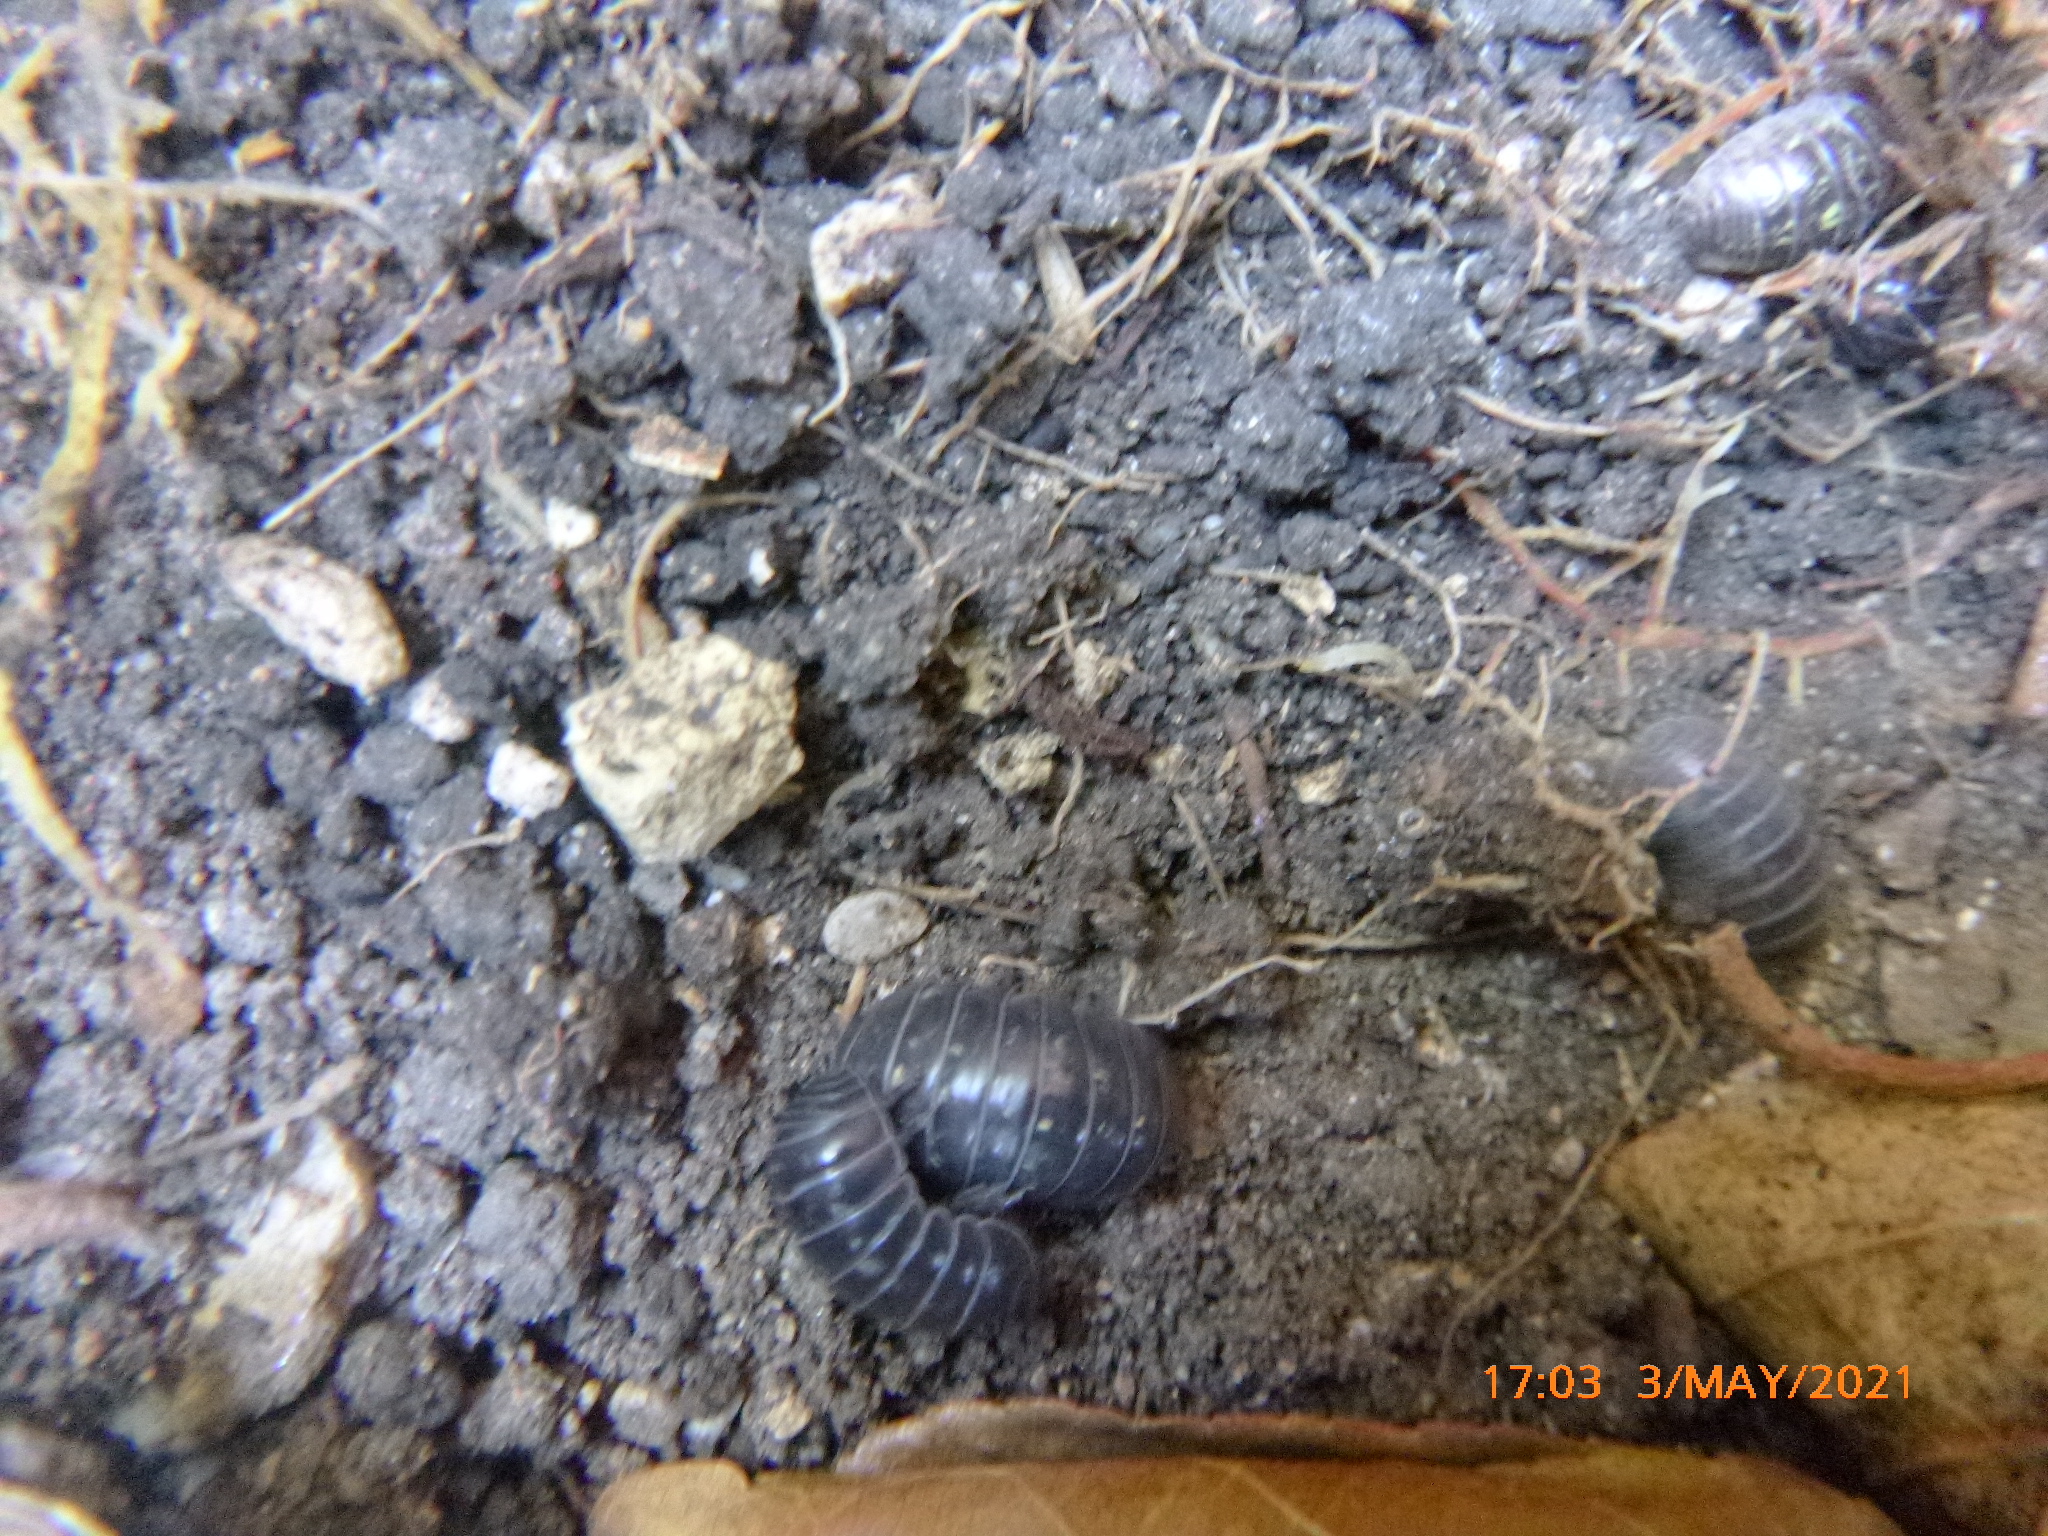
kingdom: Animalia
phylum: Arthropoda
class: Malacostraca
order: Isopoda
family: Armadillidiidae
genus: Armadillidium
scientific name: Armadillidium vulgare
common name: Common pill woodlouse
